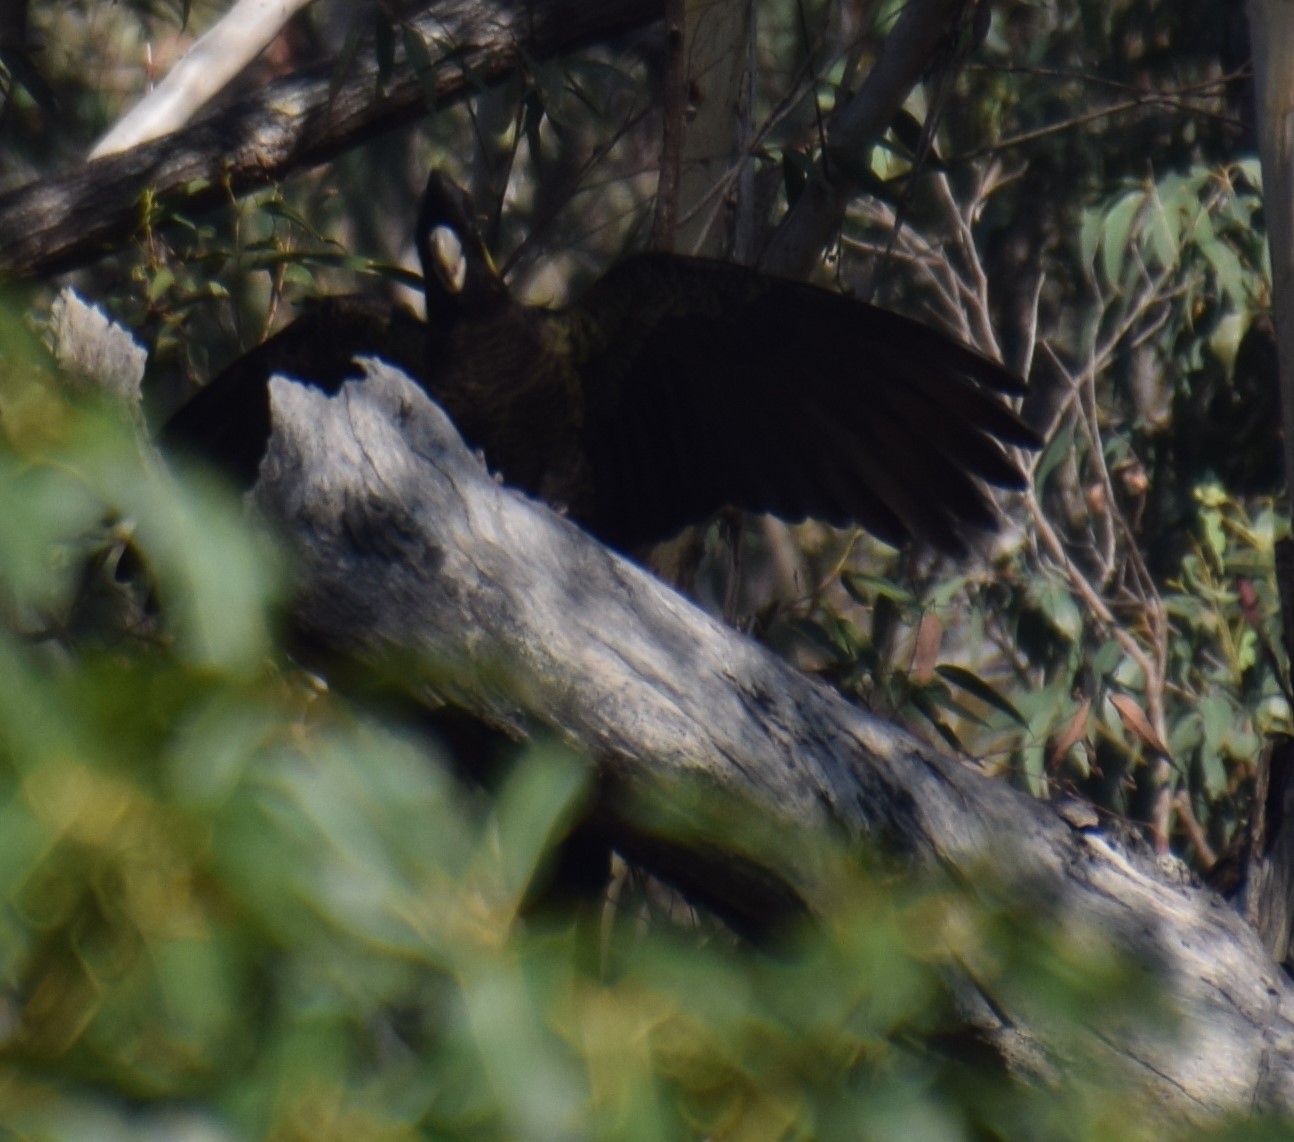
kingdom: Animalia
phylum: Chordata
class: Aves
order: Psittaciformes
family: Cacatuidae
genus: Zanda
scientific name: Zanda funerea
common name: Yellow-tailed black-cockatoo
